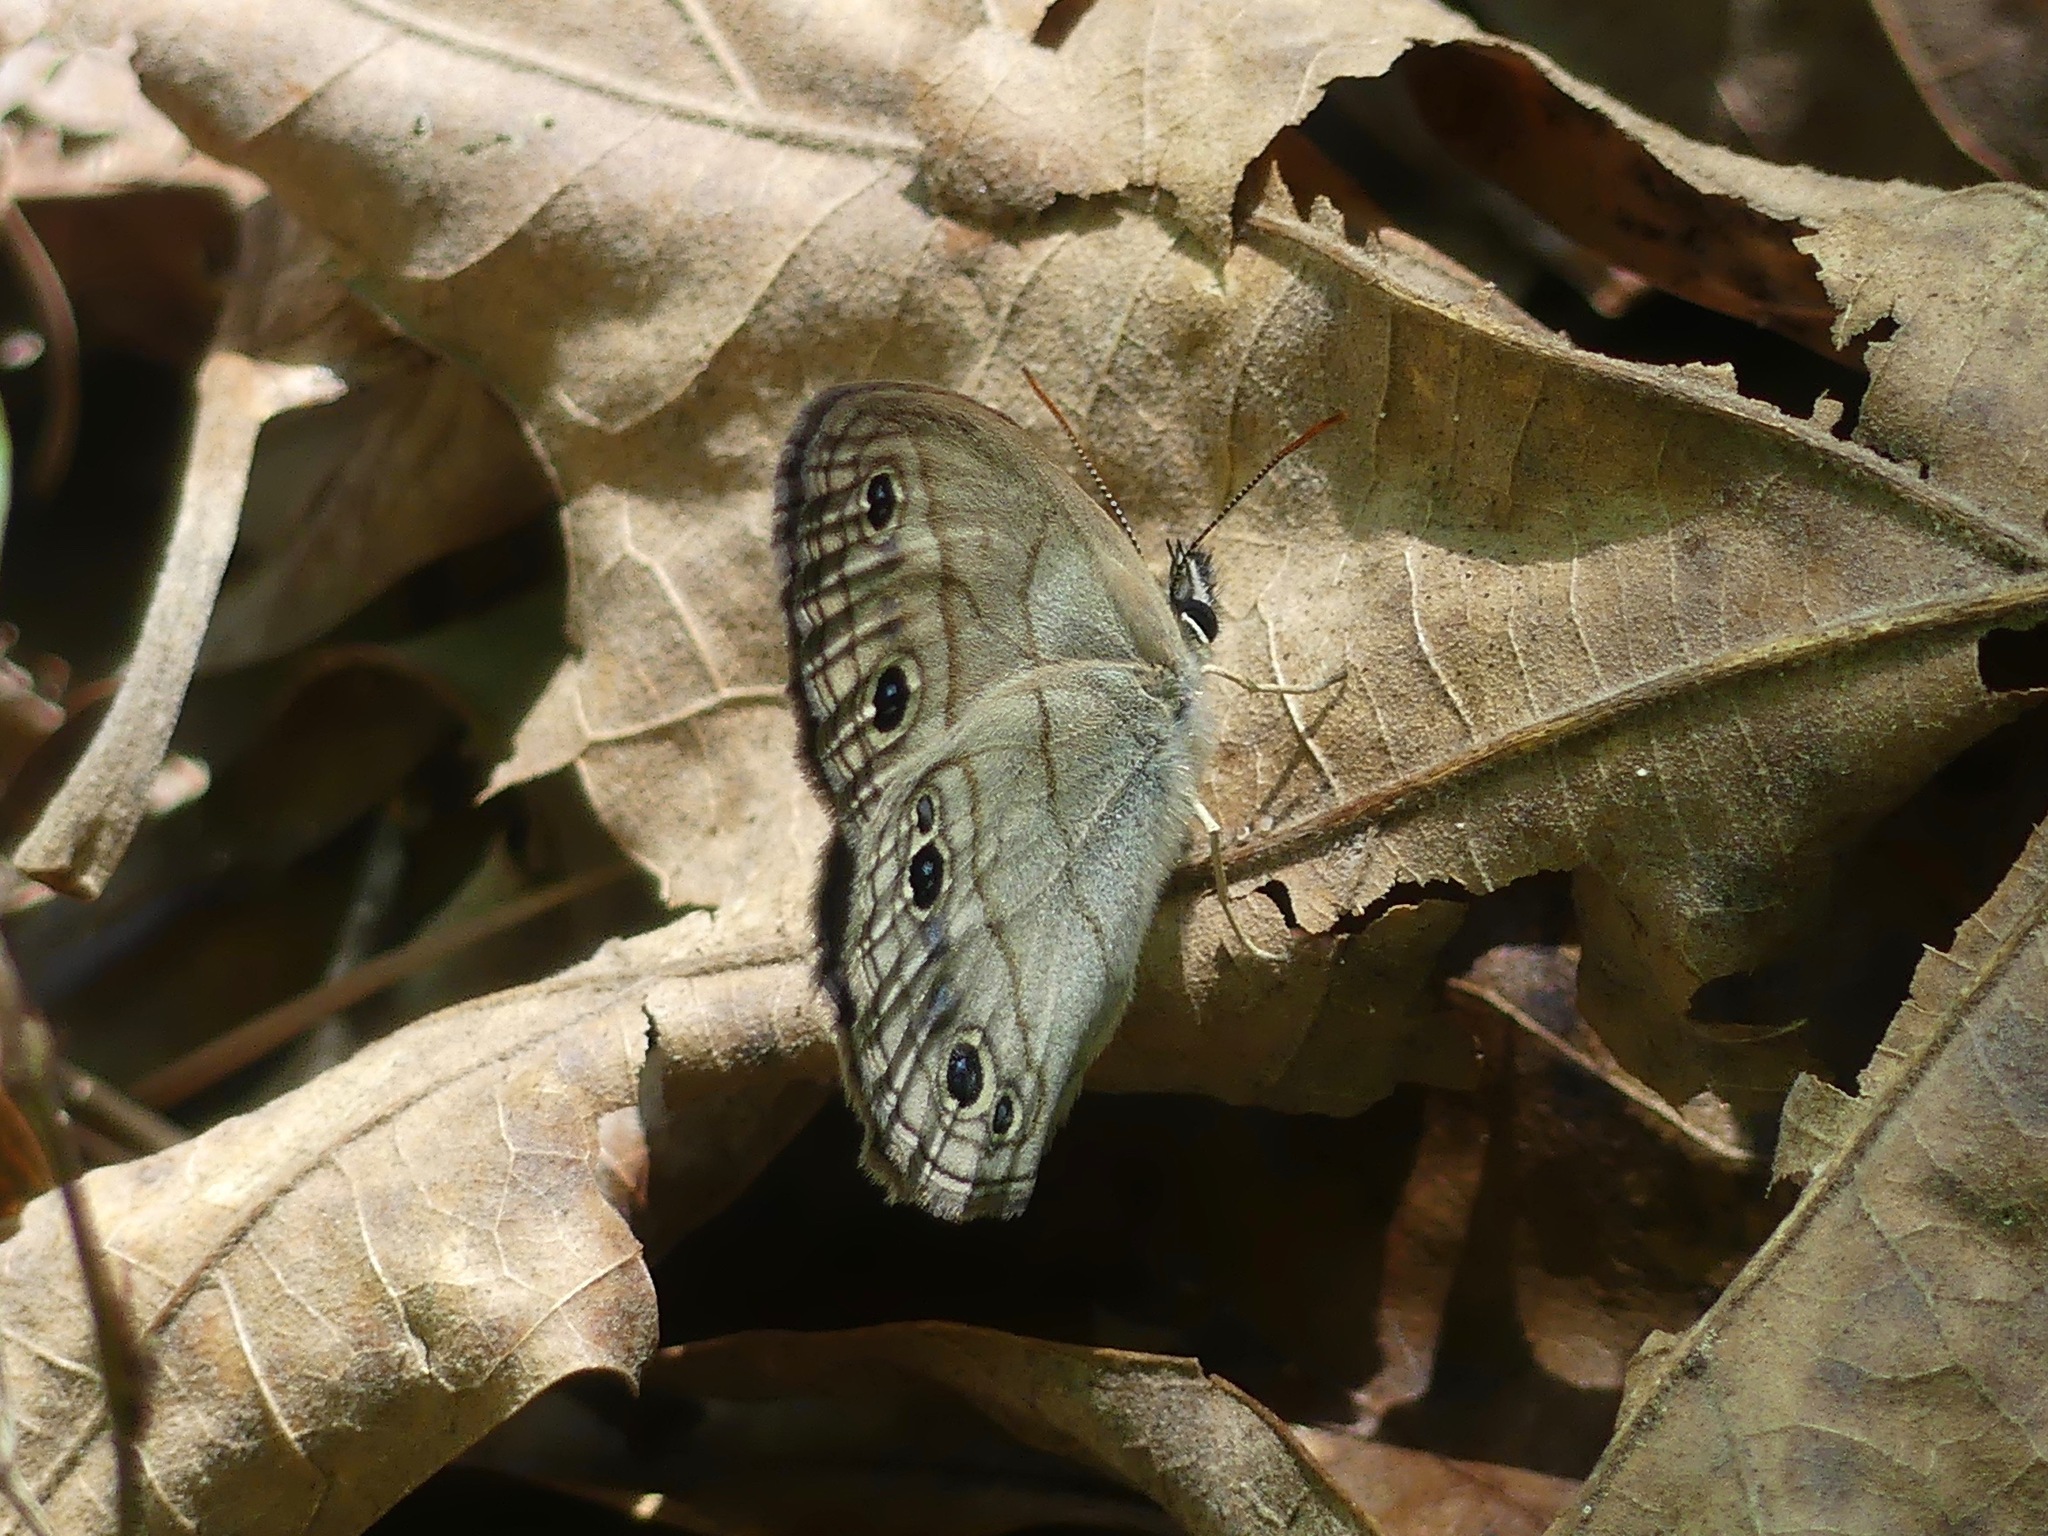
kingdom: Animalia
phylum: Arthropoda
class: Insecta
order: Lepidoptera
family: Nymphalidae
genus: Euptychia
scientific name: Euptychia cymela
